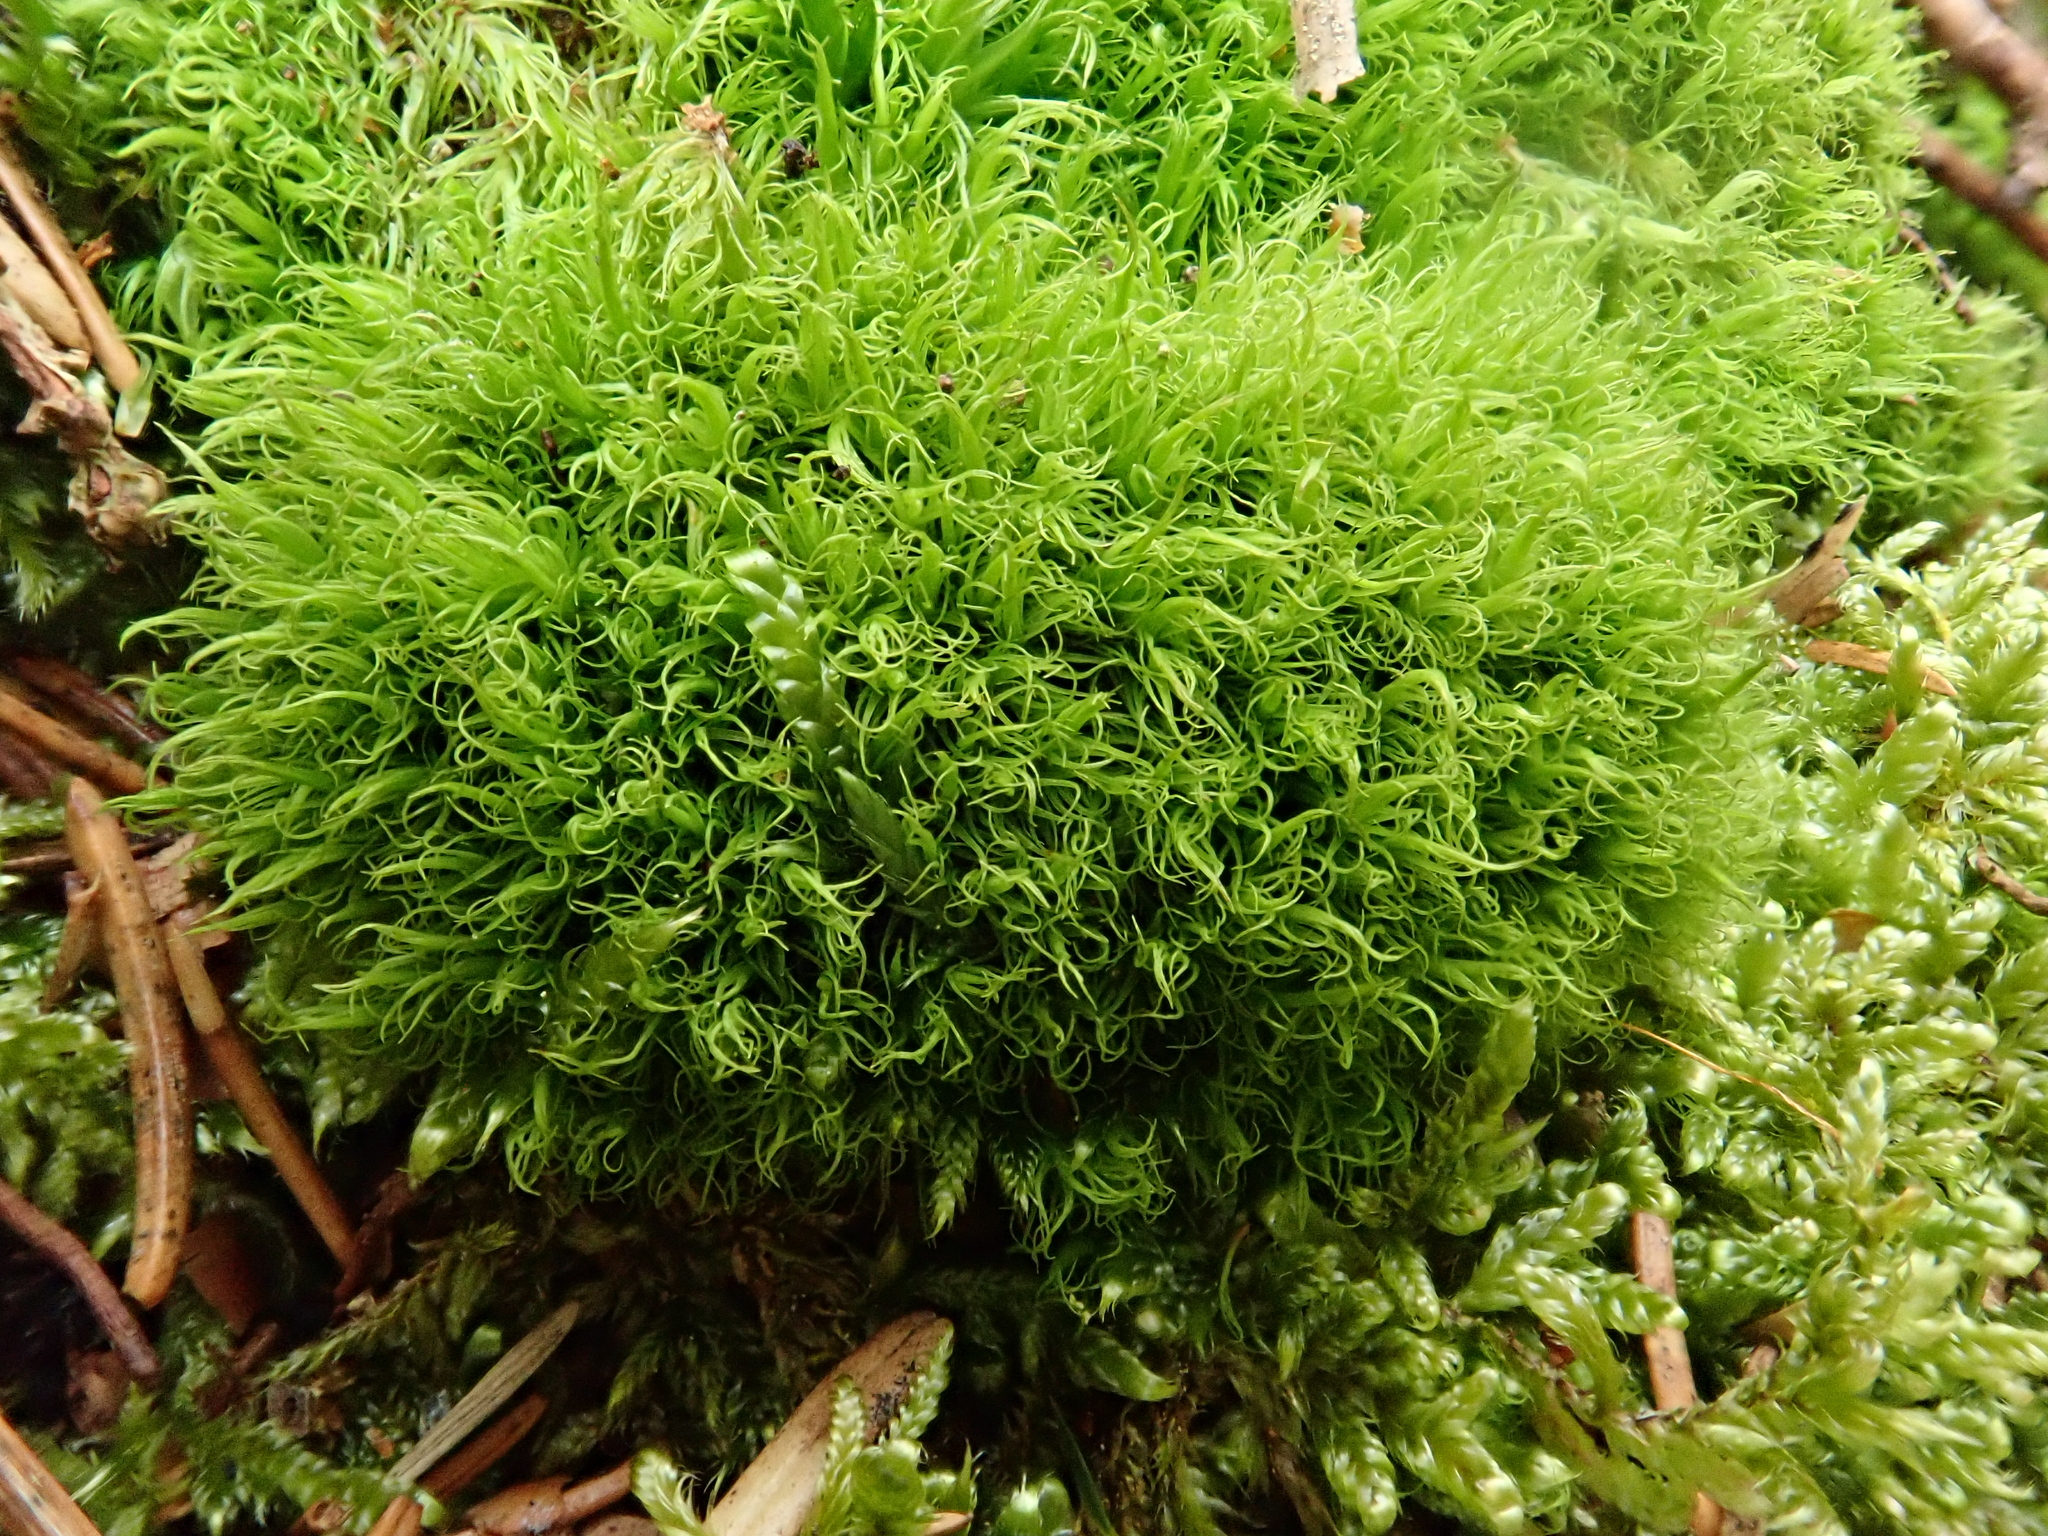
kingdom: Plantae
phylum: Bryophyta
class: Bryopsida
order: Dicranales
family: Dicranaceae
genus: Orthodicranum
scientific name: Orthodicranum montanum
